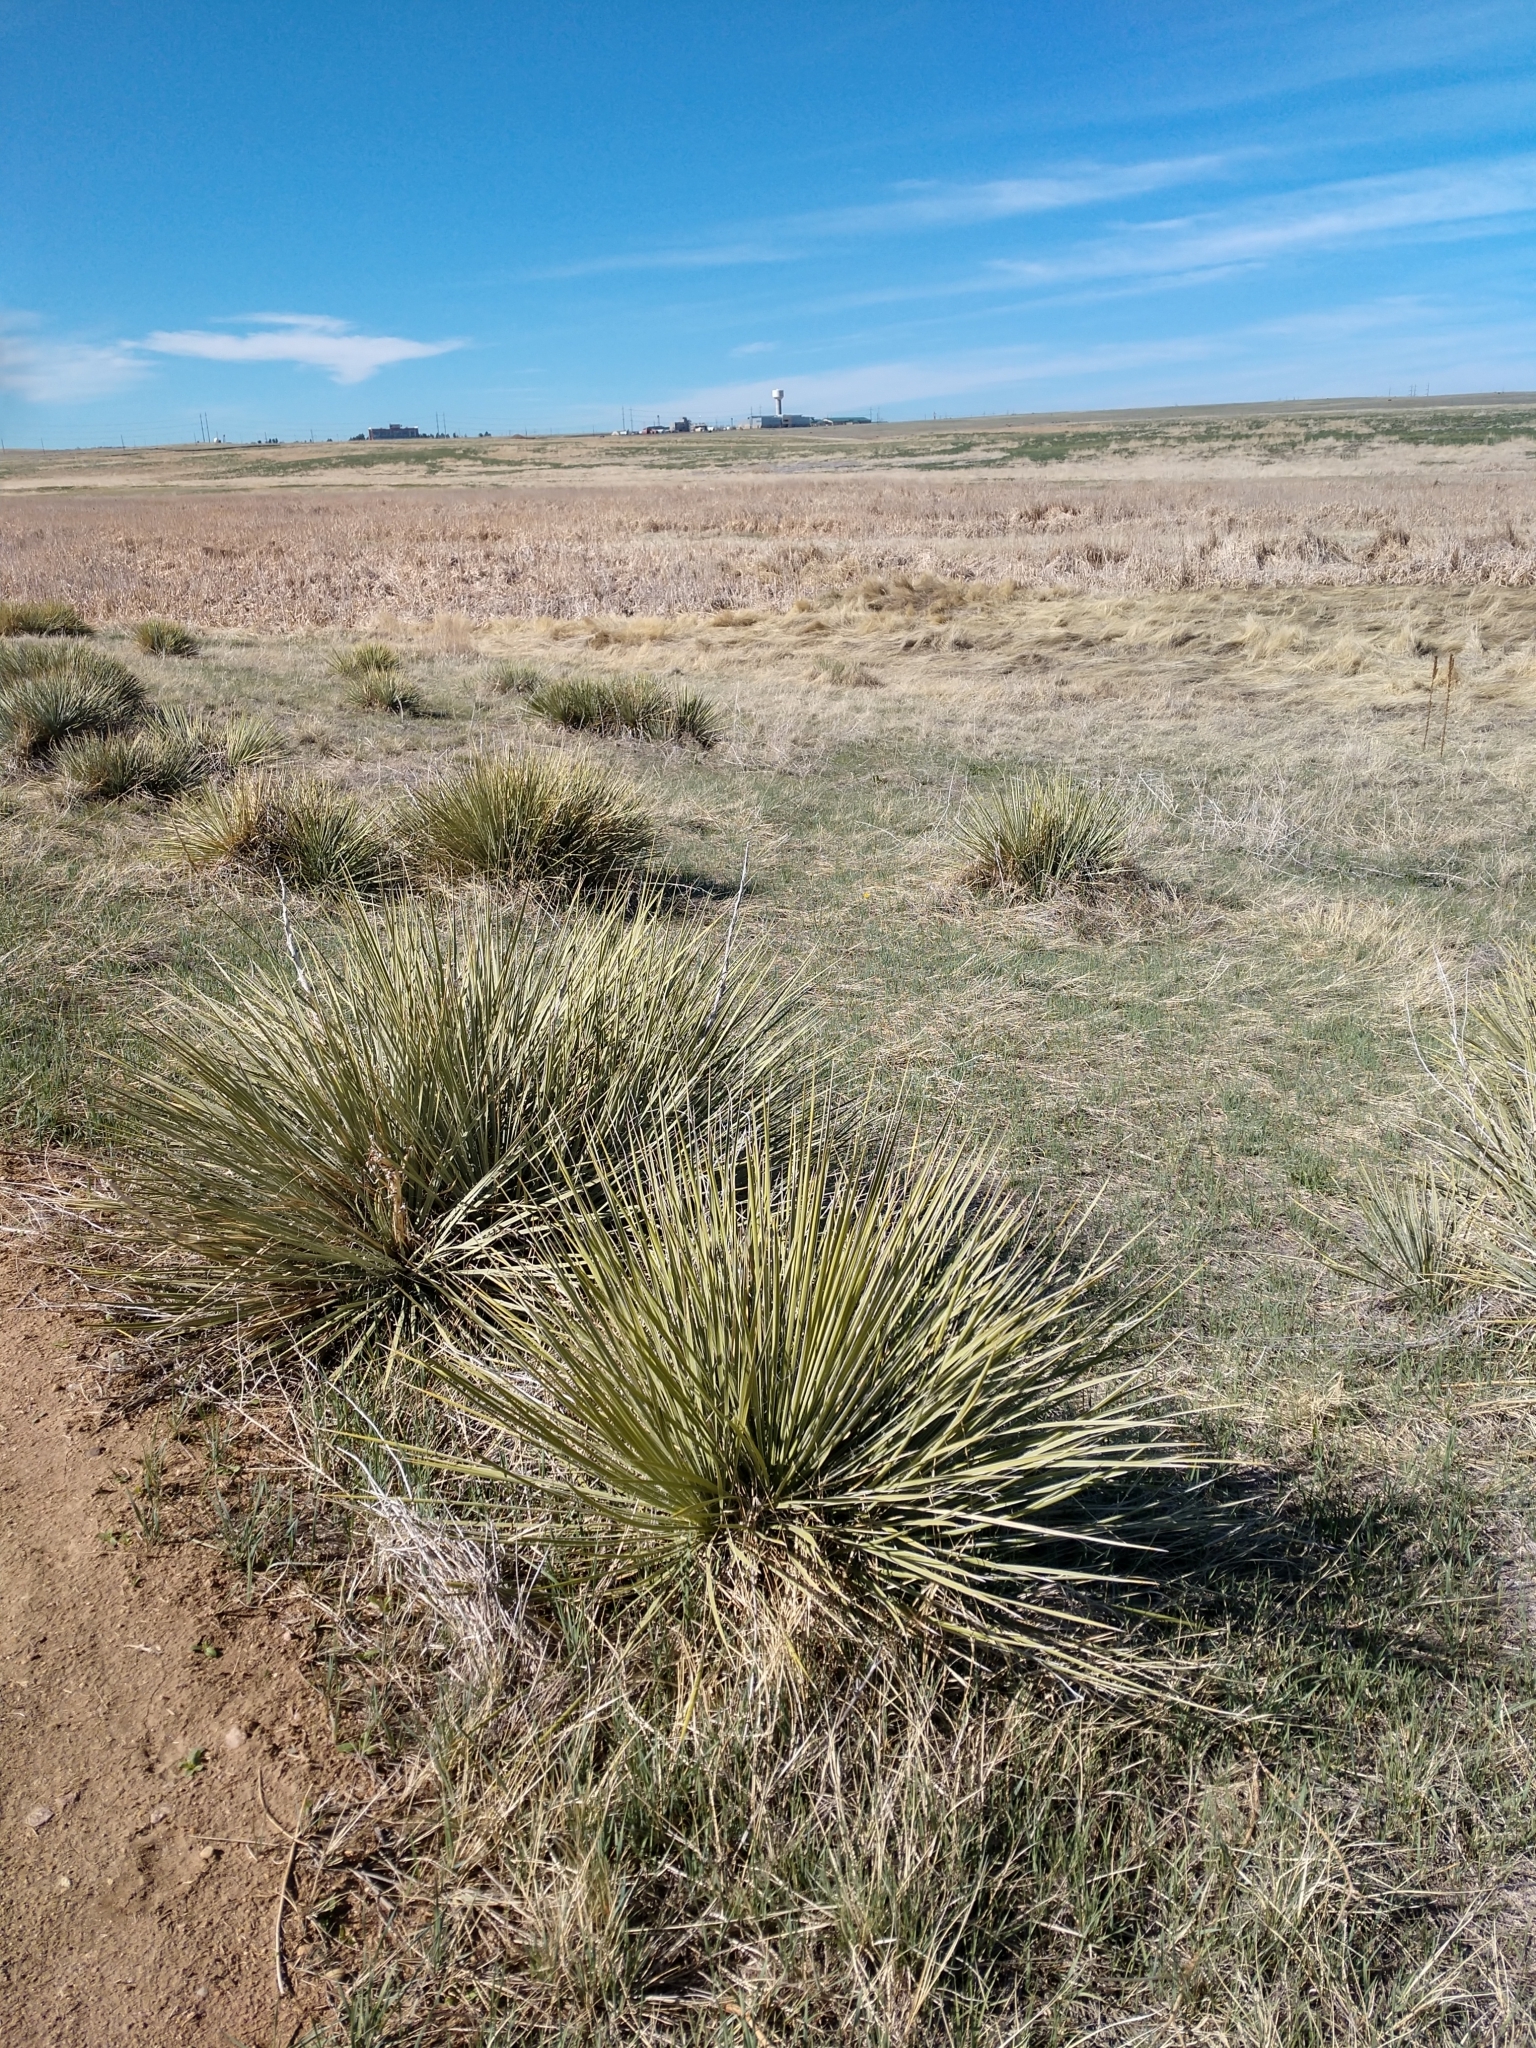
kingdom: Plantae
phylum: Tracheophyta
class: Liliopsida
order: Asparagales
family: Asparagaceae
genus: Yucca
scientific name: Yucca glauca
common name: Great plains yucca
